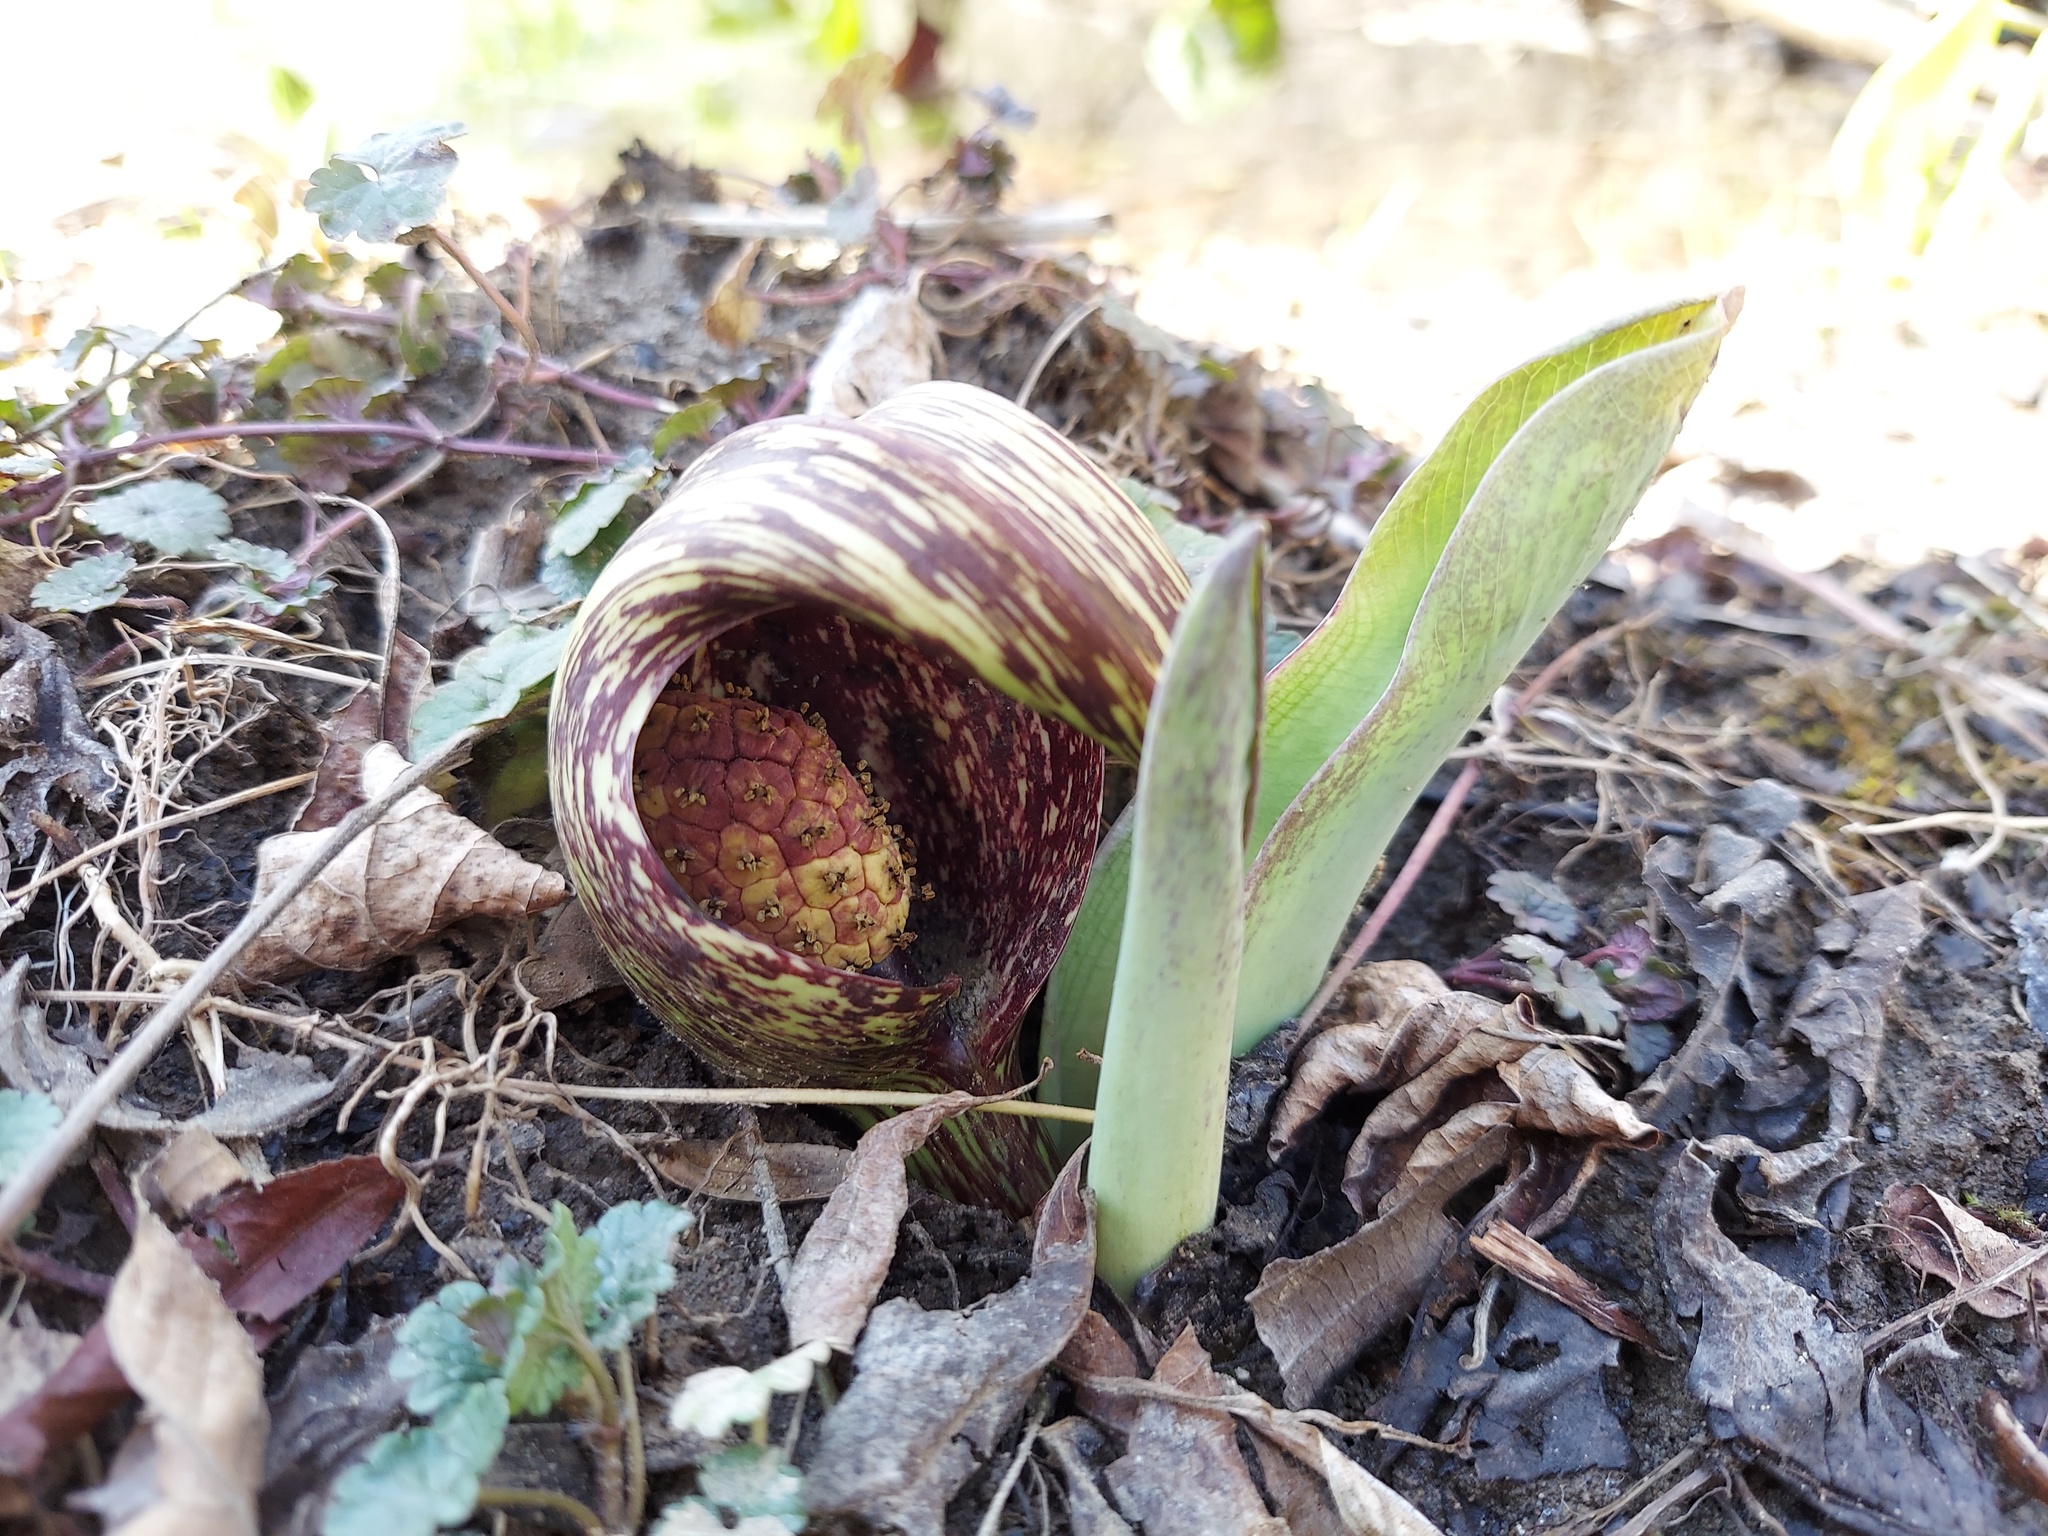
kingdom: Plantae
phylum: Tracheophyta
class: Liliopsida
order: Alismatales
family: Araceae
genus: Symplocarpus
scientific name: Symplocarpus foetidus
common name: Eastern skunk cabbage
